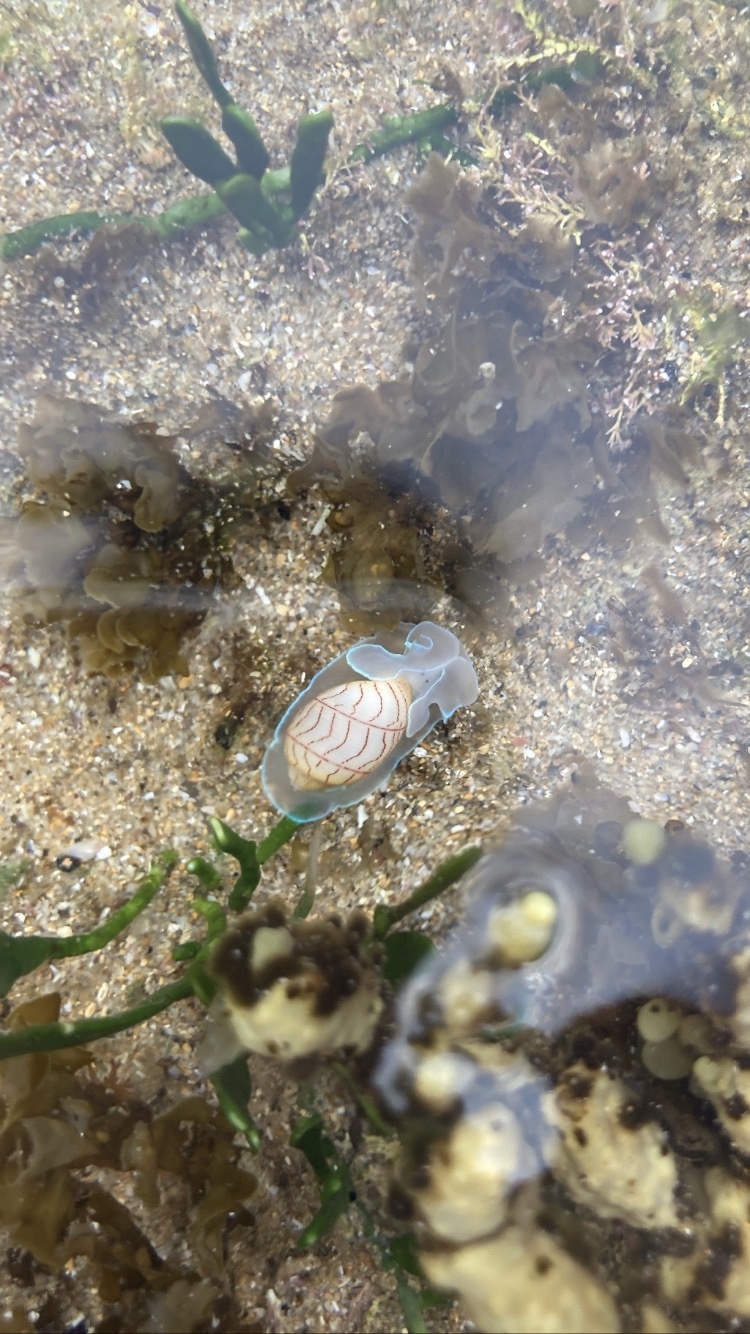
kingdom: Animalia
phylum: Mollusca
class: Gastropoda
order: Cephalaspidea
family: Aplustridae
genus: Bullina
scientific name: Bullina lineata
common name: Lined bubble snail
